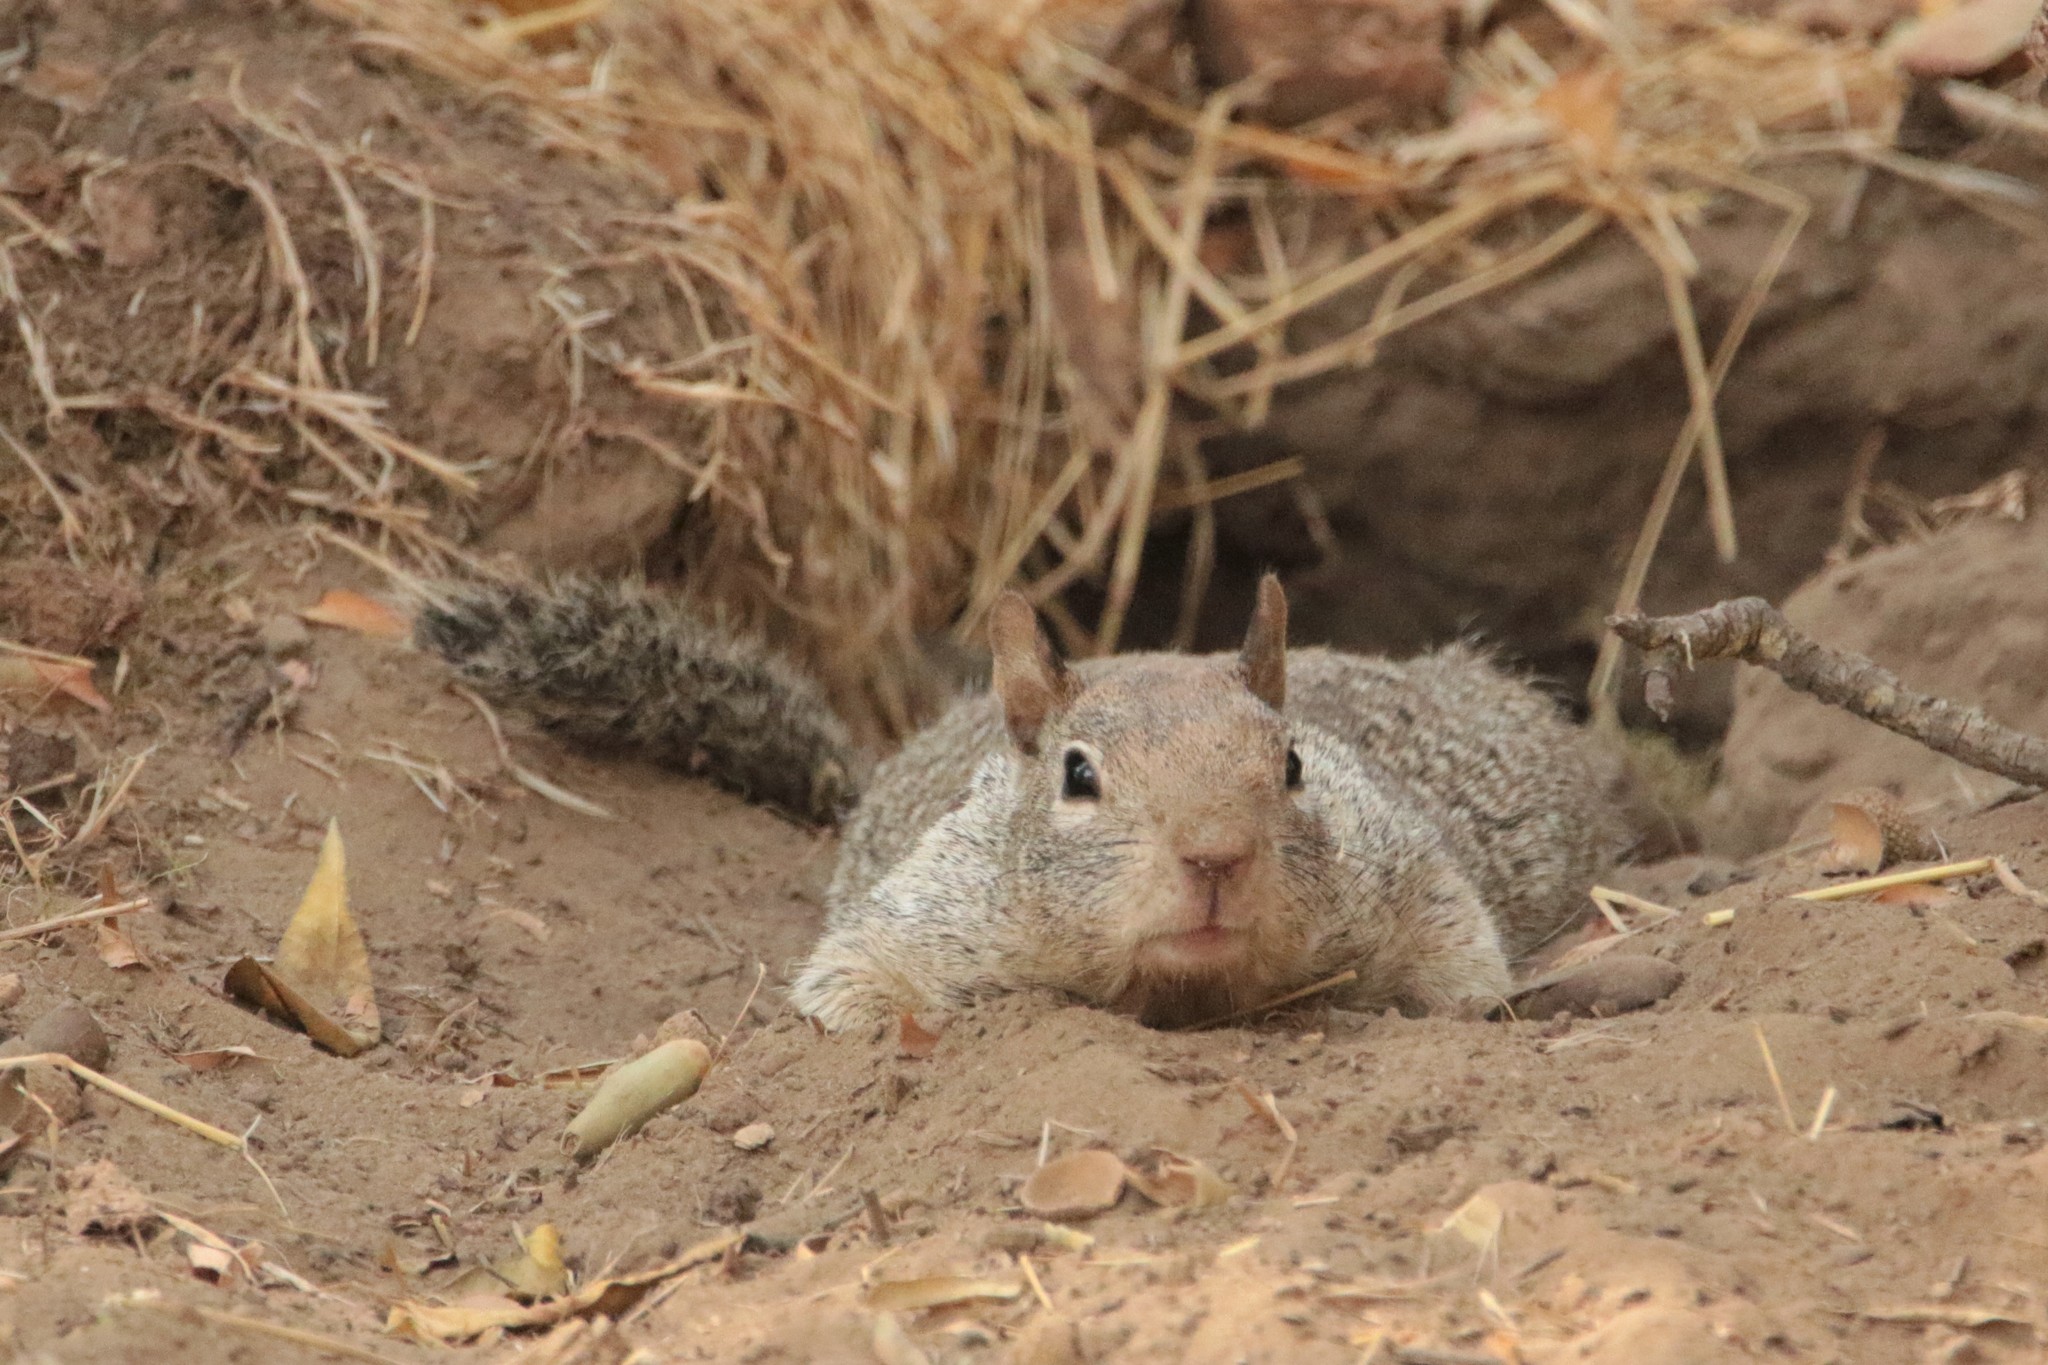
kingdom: Animalia
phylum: Chordata
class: Mammalia
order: Rodentia
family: Sciuridae
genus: Otospermophilus
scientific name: Otospermophilus beecheyi
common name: California ground squirrel
